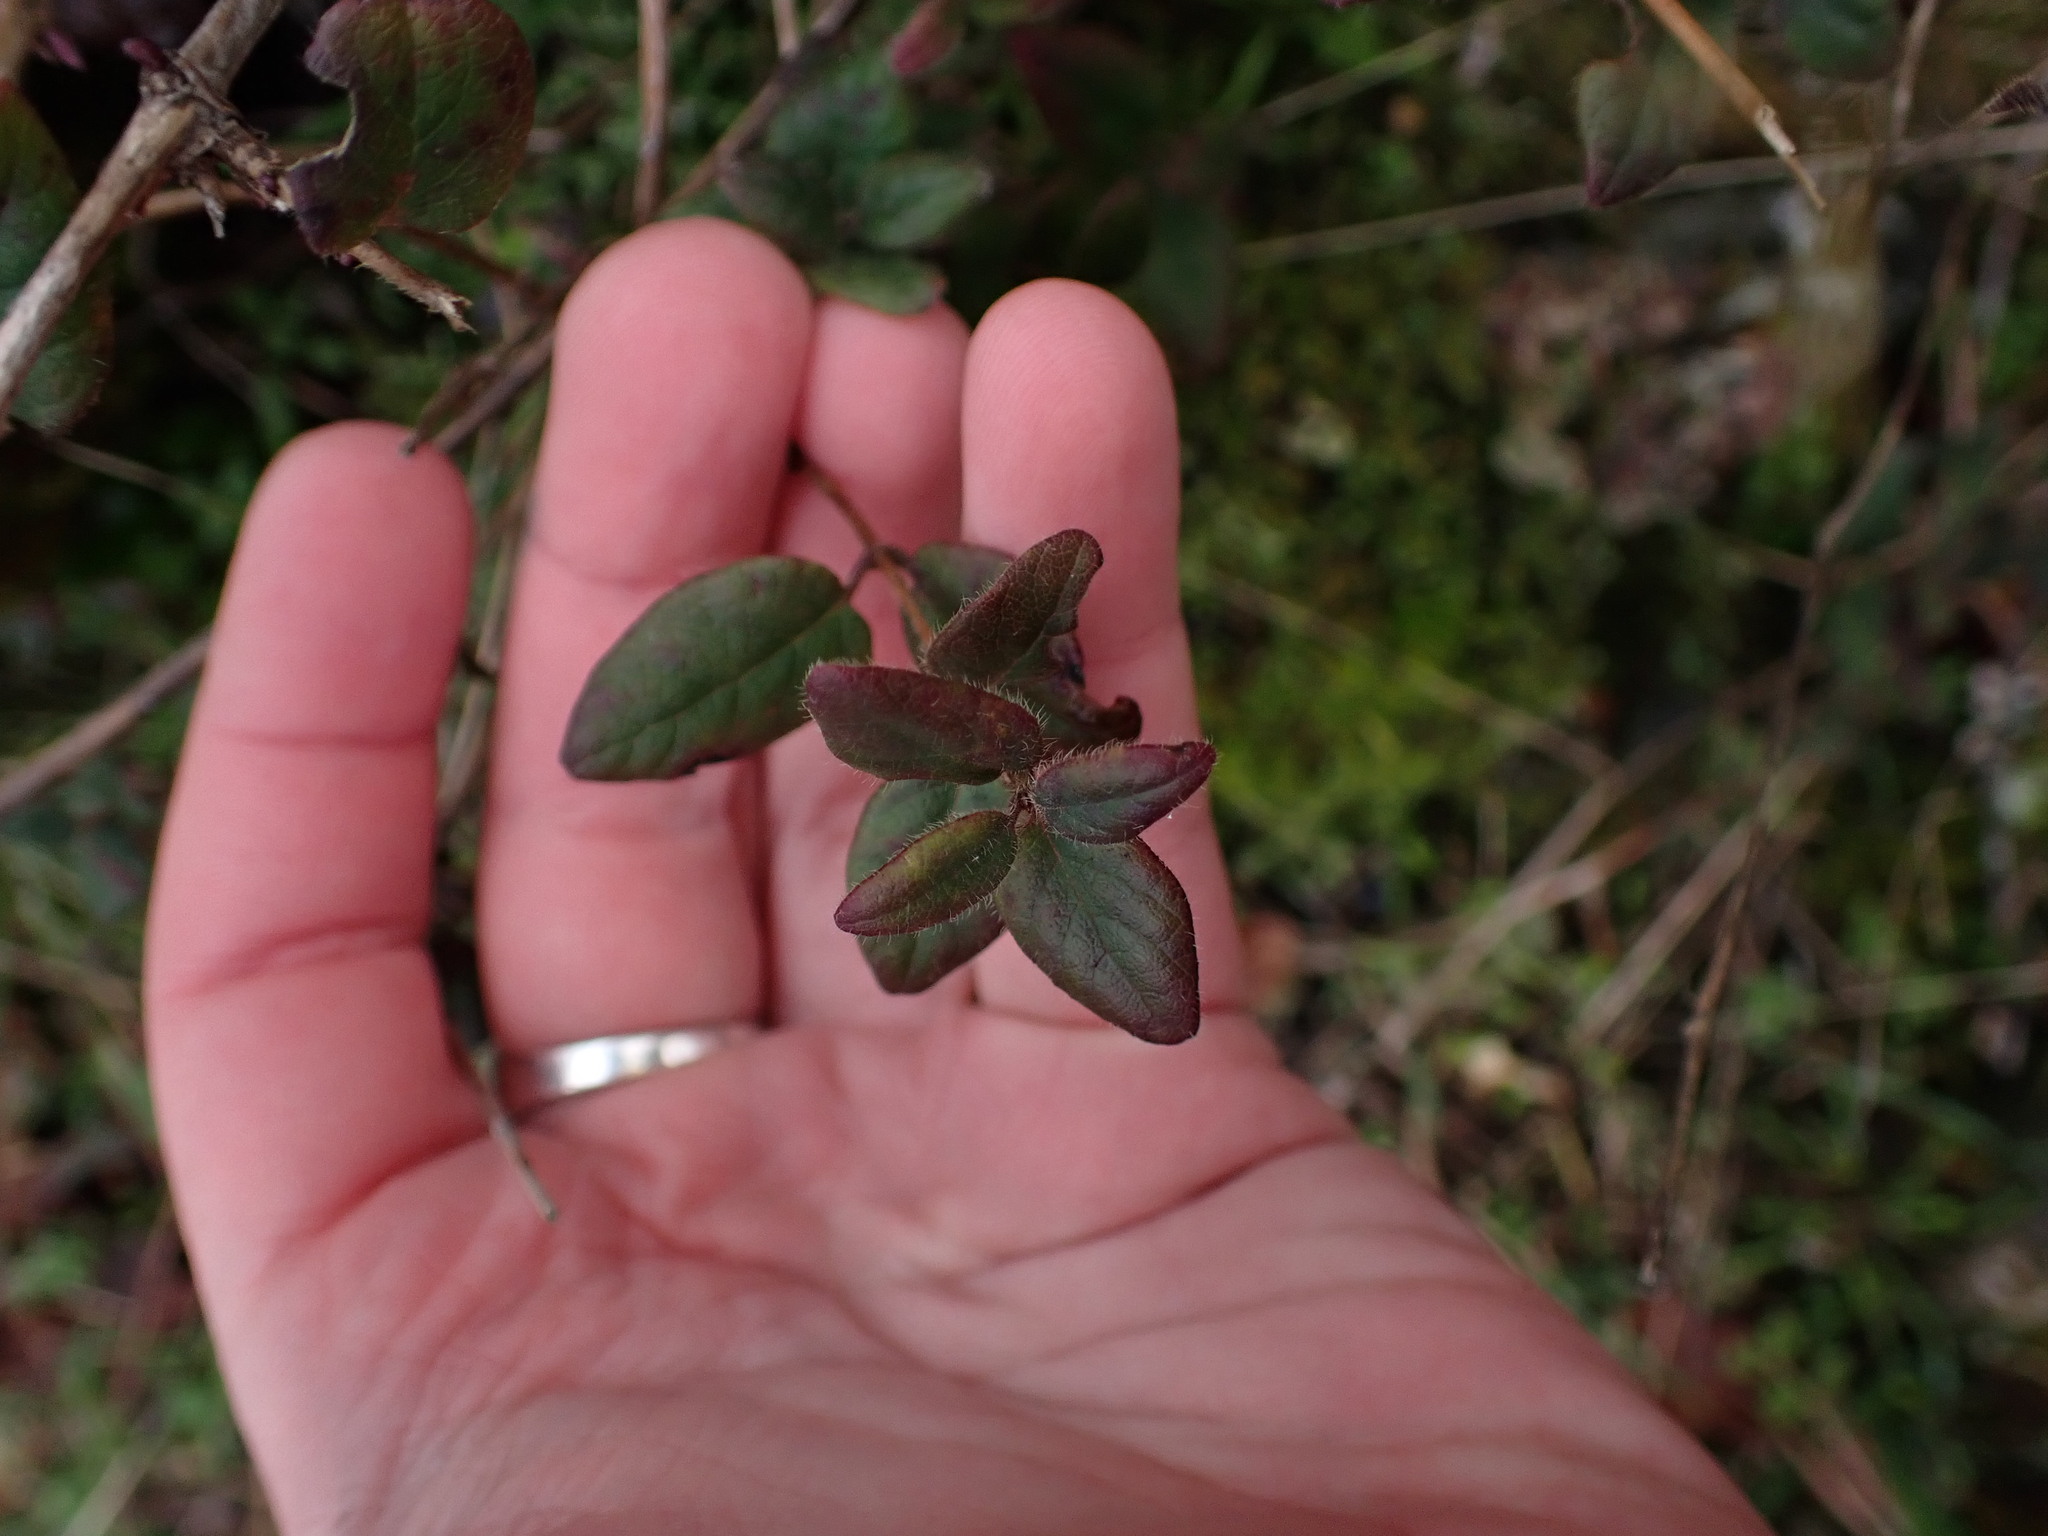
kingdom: Plantae
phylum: Tracheophyta
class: Magnoliopsida
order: Dipsacales
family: Caprifoliaceae
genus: Lonicera
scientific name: Lonicera hispidula
